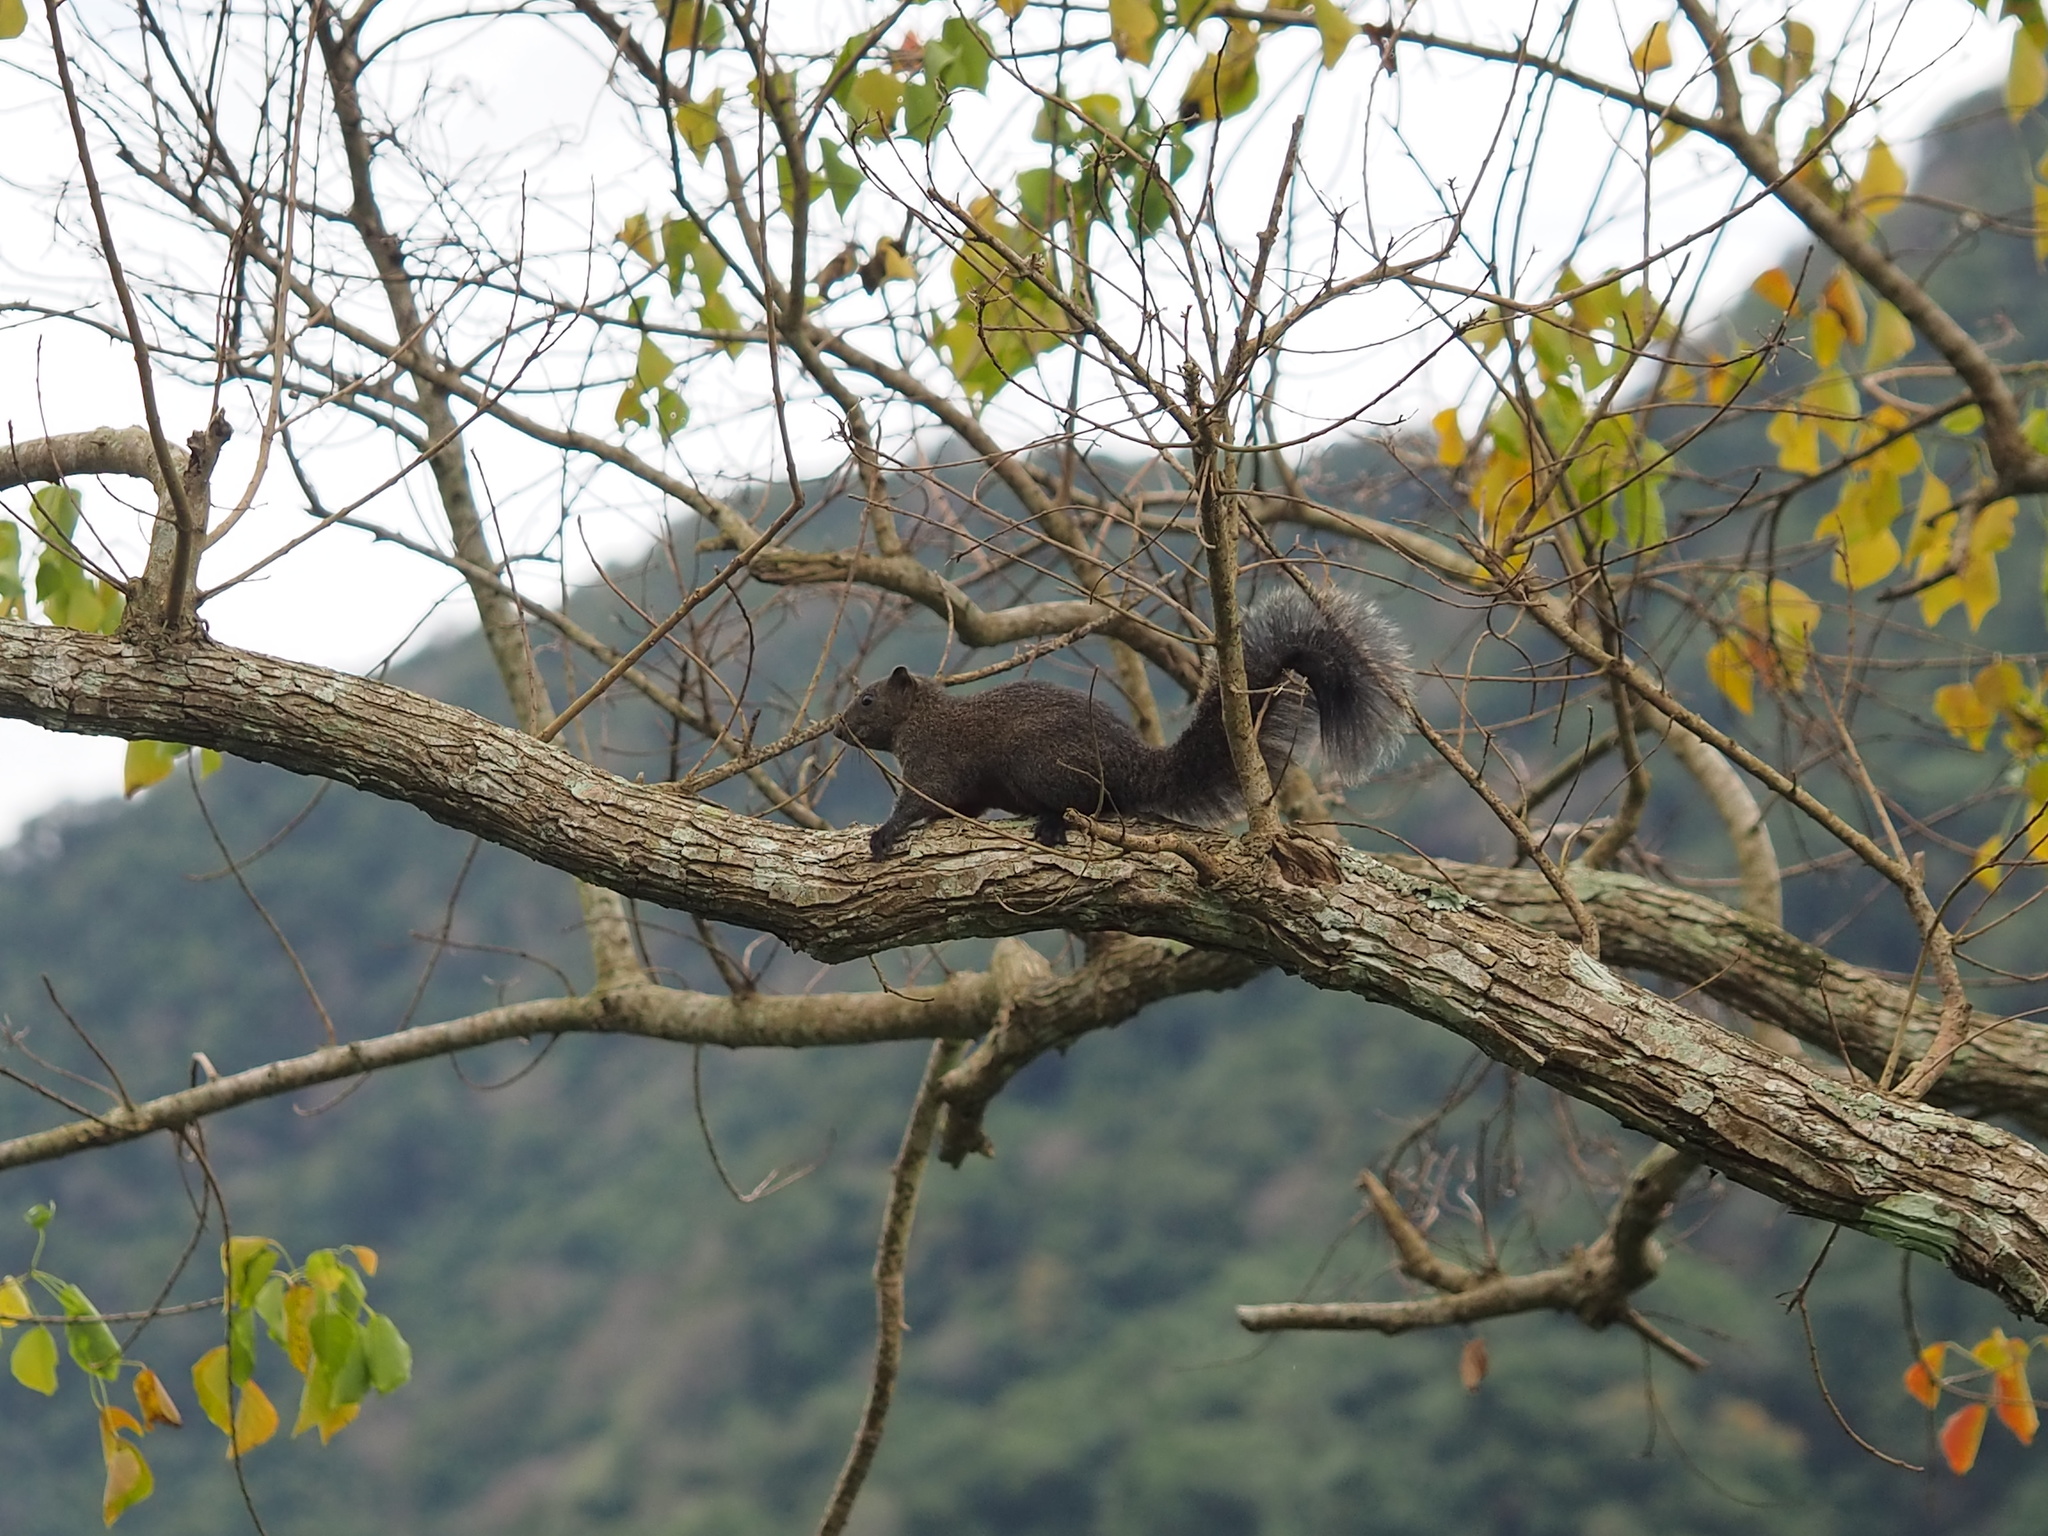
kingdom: Animalia
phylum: Chordata
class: Mammalia
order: Rodentia
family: Sciuridae
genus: Callosciurus
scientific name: Callosciurus erythraeus
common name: Pallas's squirrel
